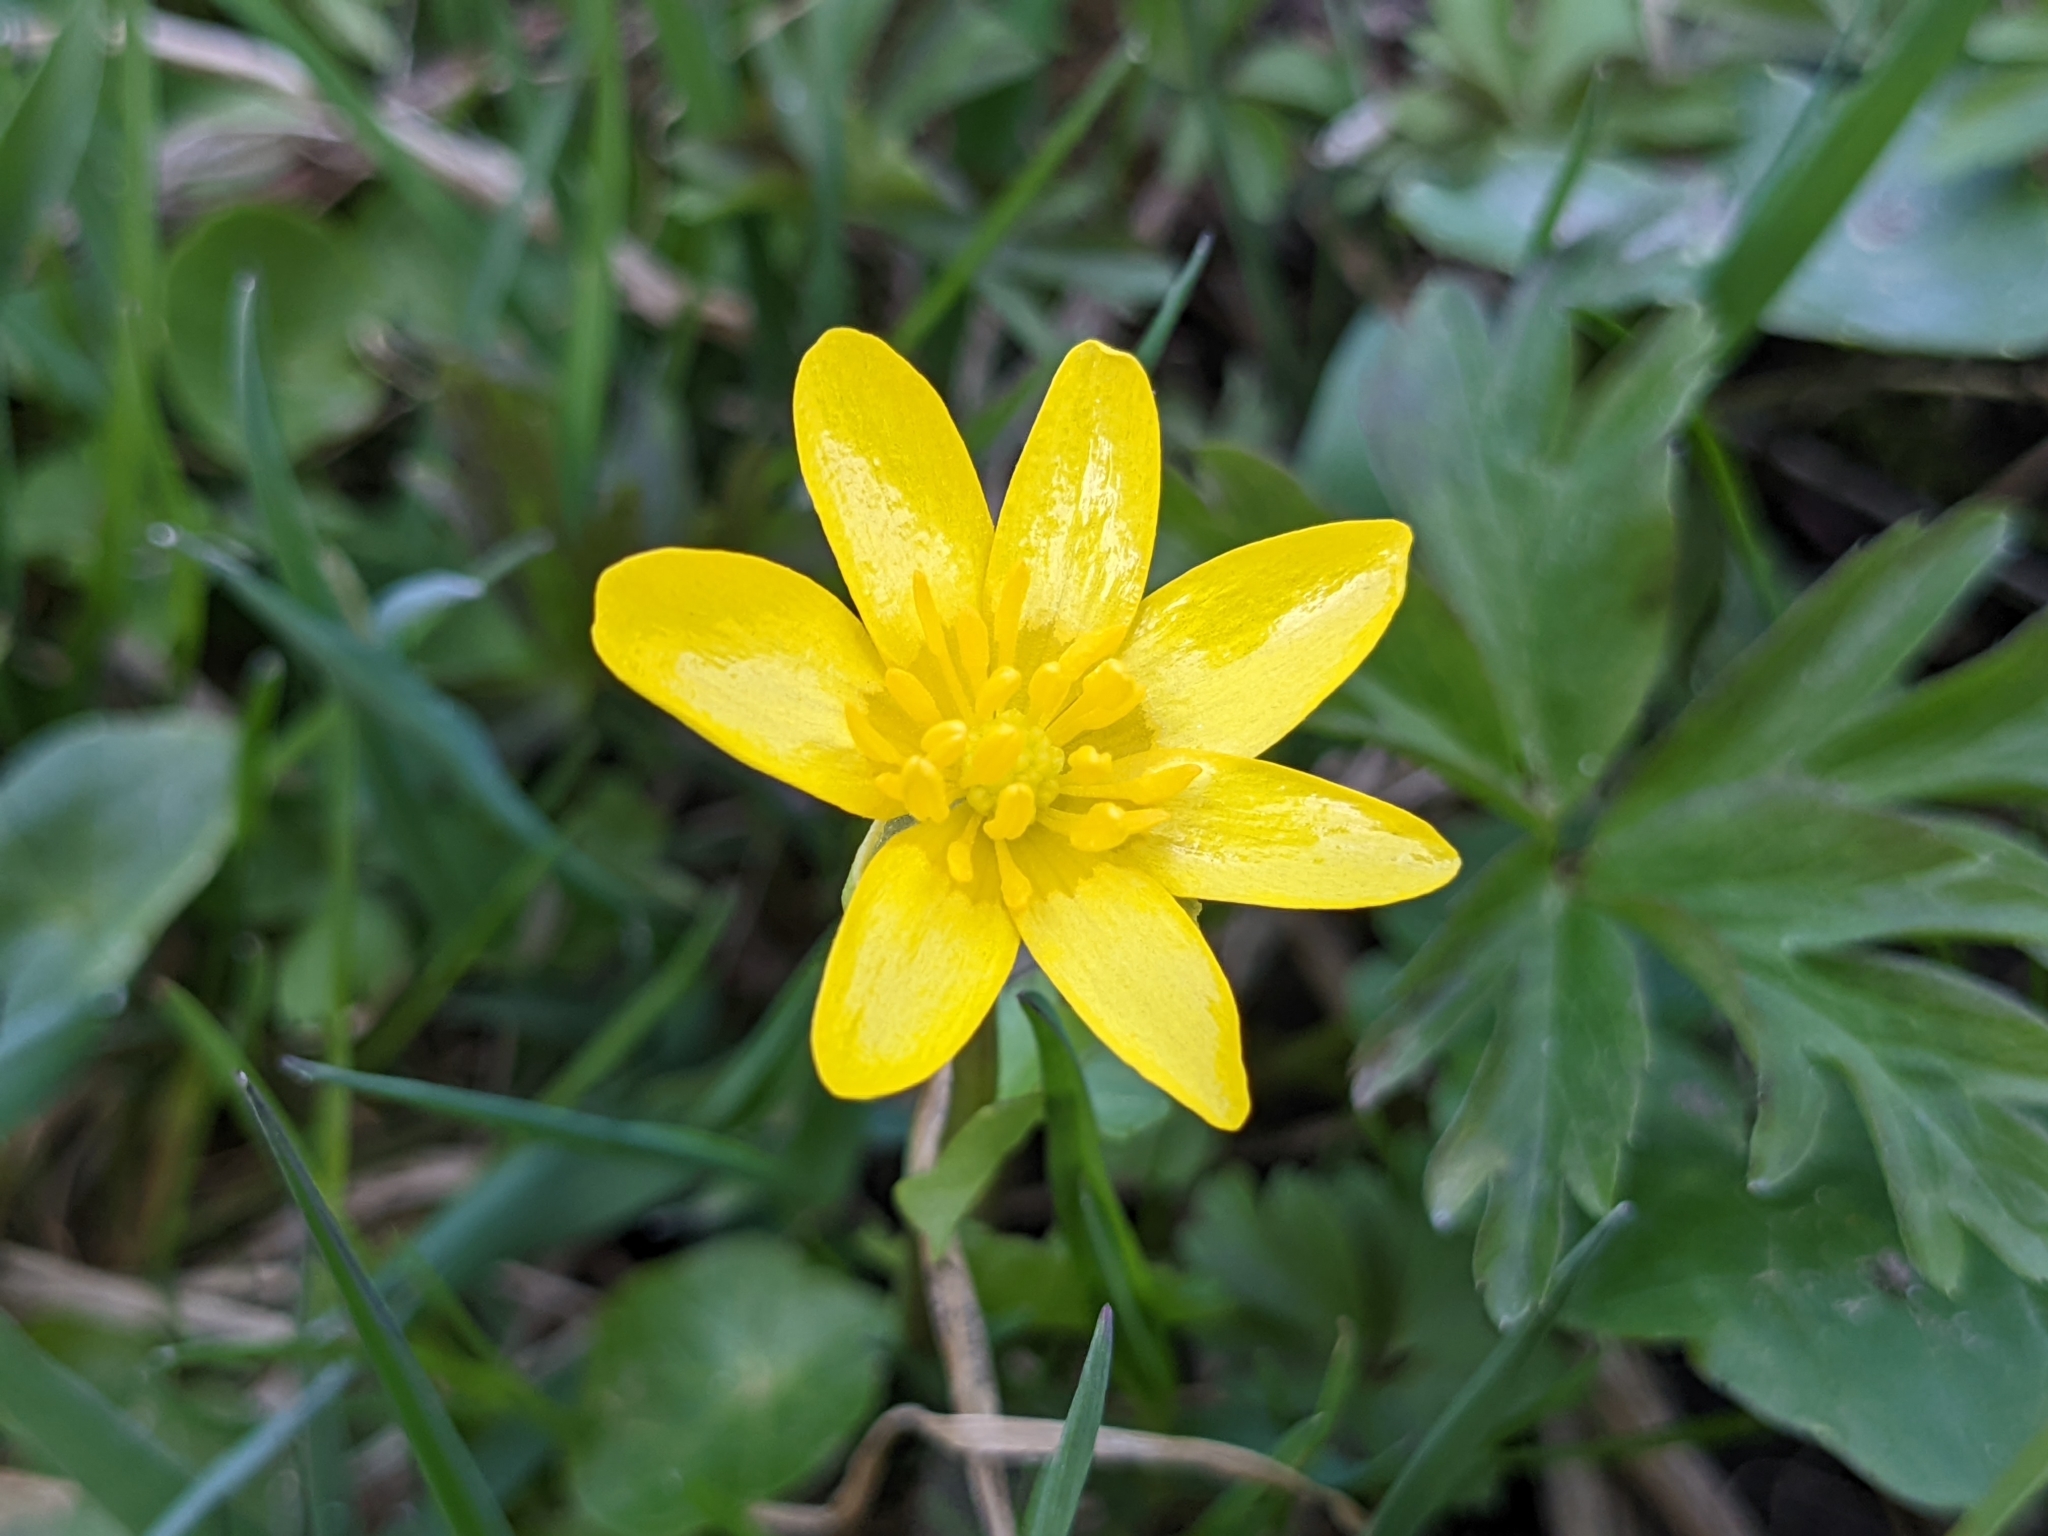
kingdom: Plantae
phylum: Tracheophyta
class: Magnoliopsida
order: Ranunculales
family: Ranunculaceae
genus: Ficaria
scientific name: Ficaria verna
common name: Lesser celandine
